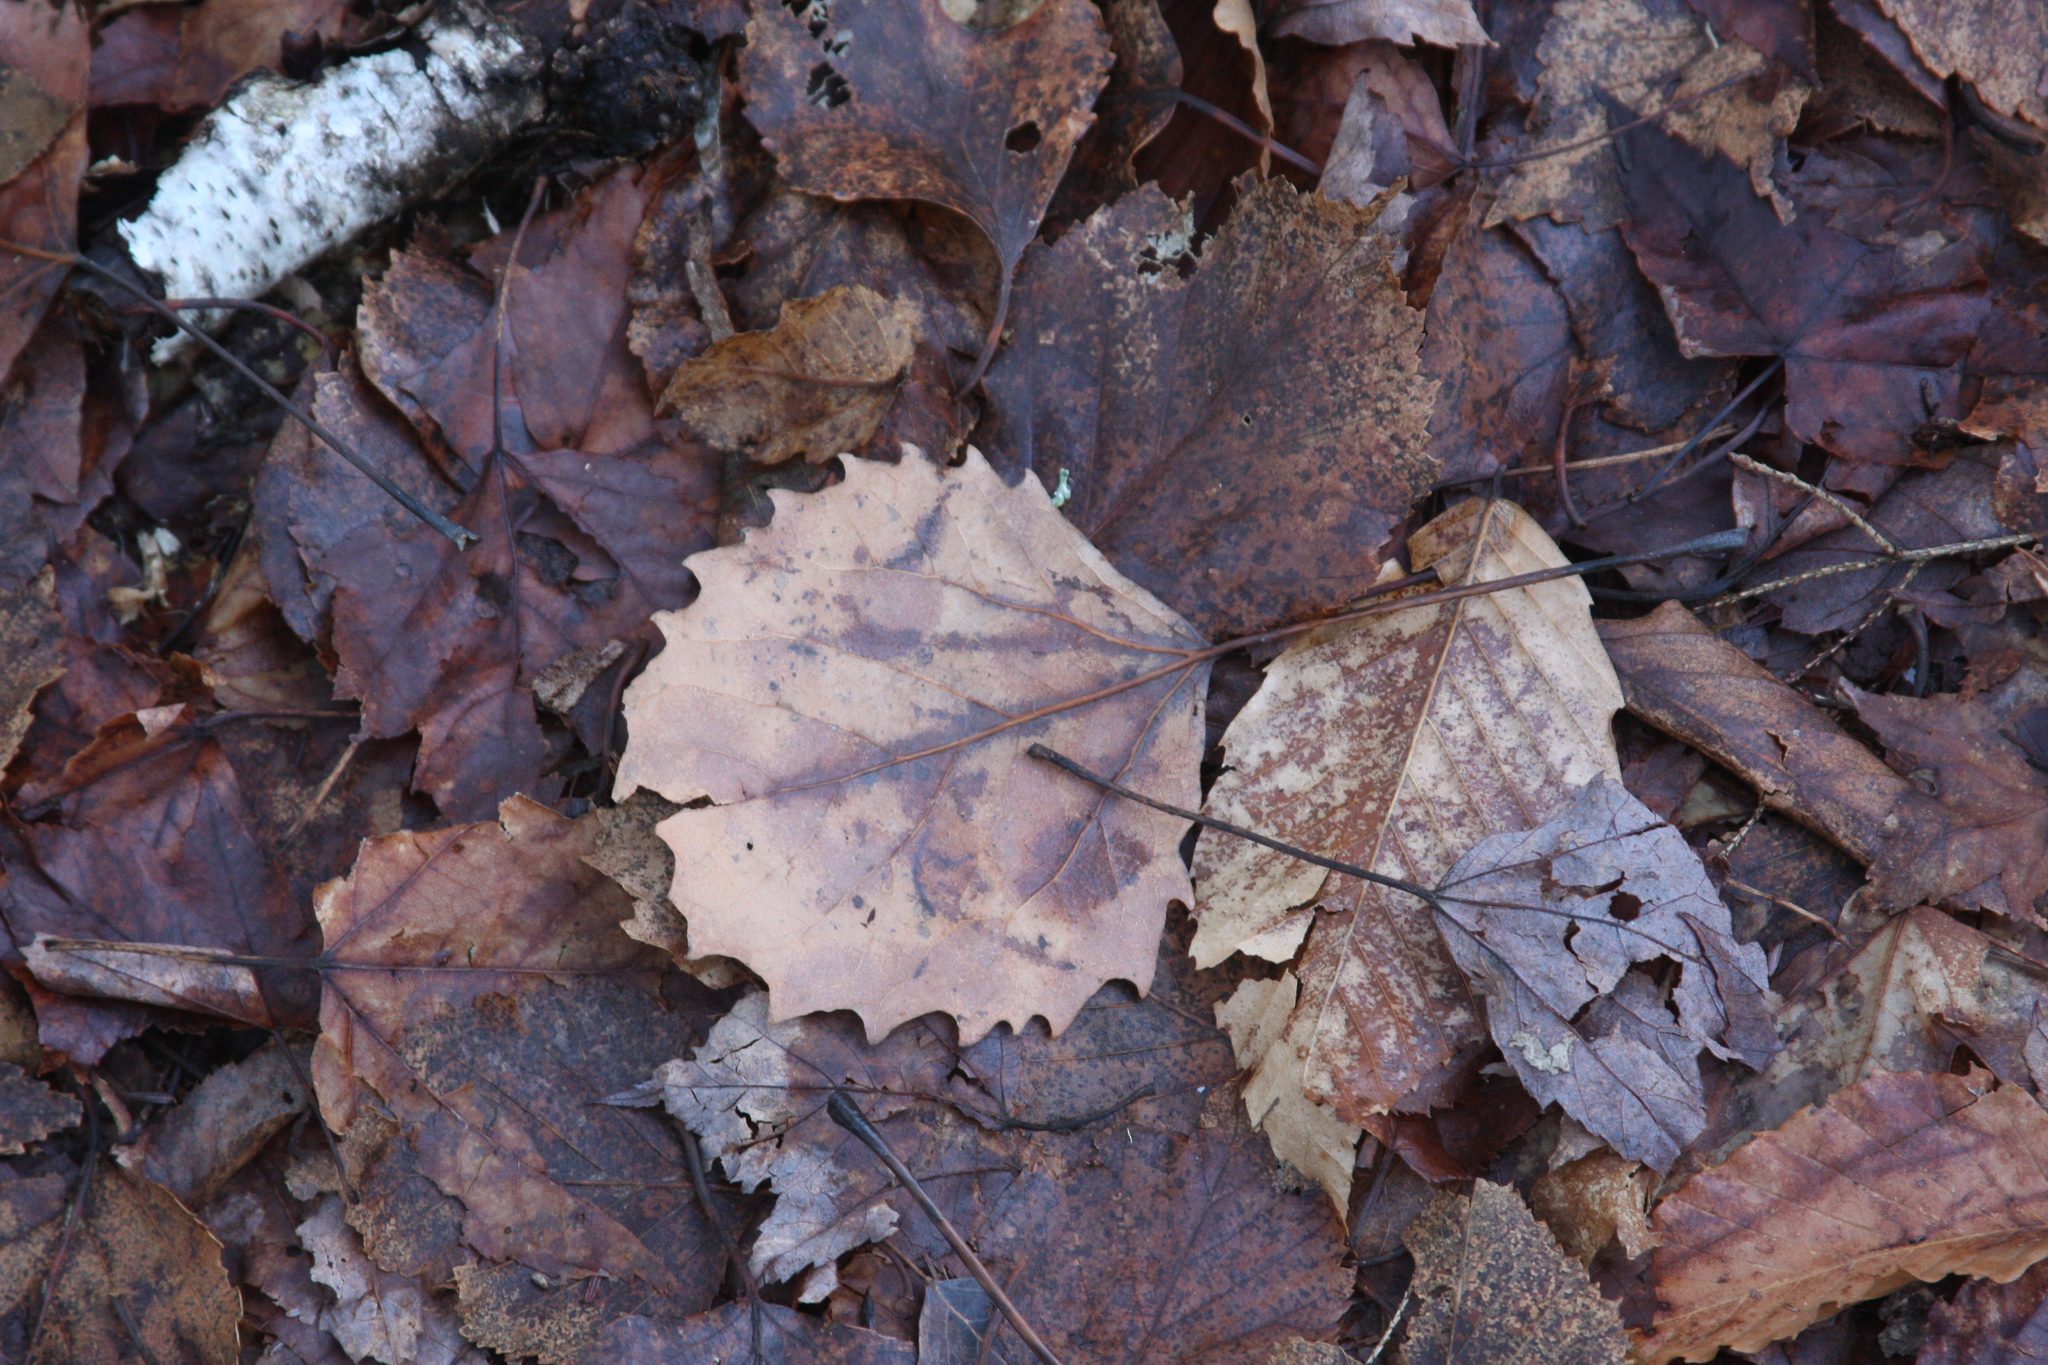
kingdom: Plantae
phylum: Tracheophyta
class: Magnoliopsida
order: Malpighiales
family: Salicaceae
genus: Populus
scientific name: Populus grandidentata
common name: Bigtooth aspen
